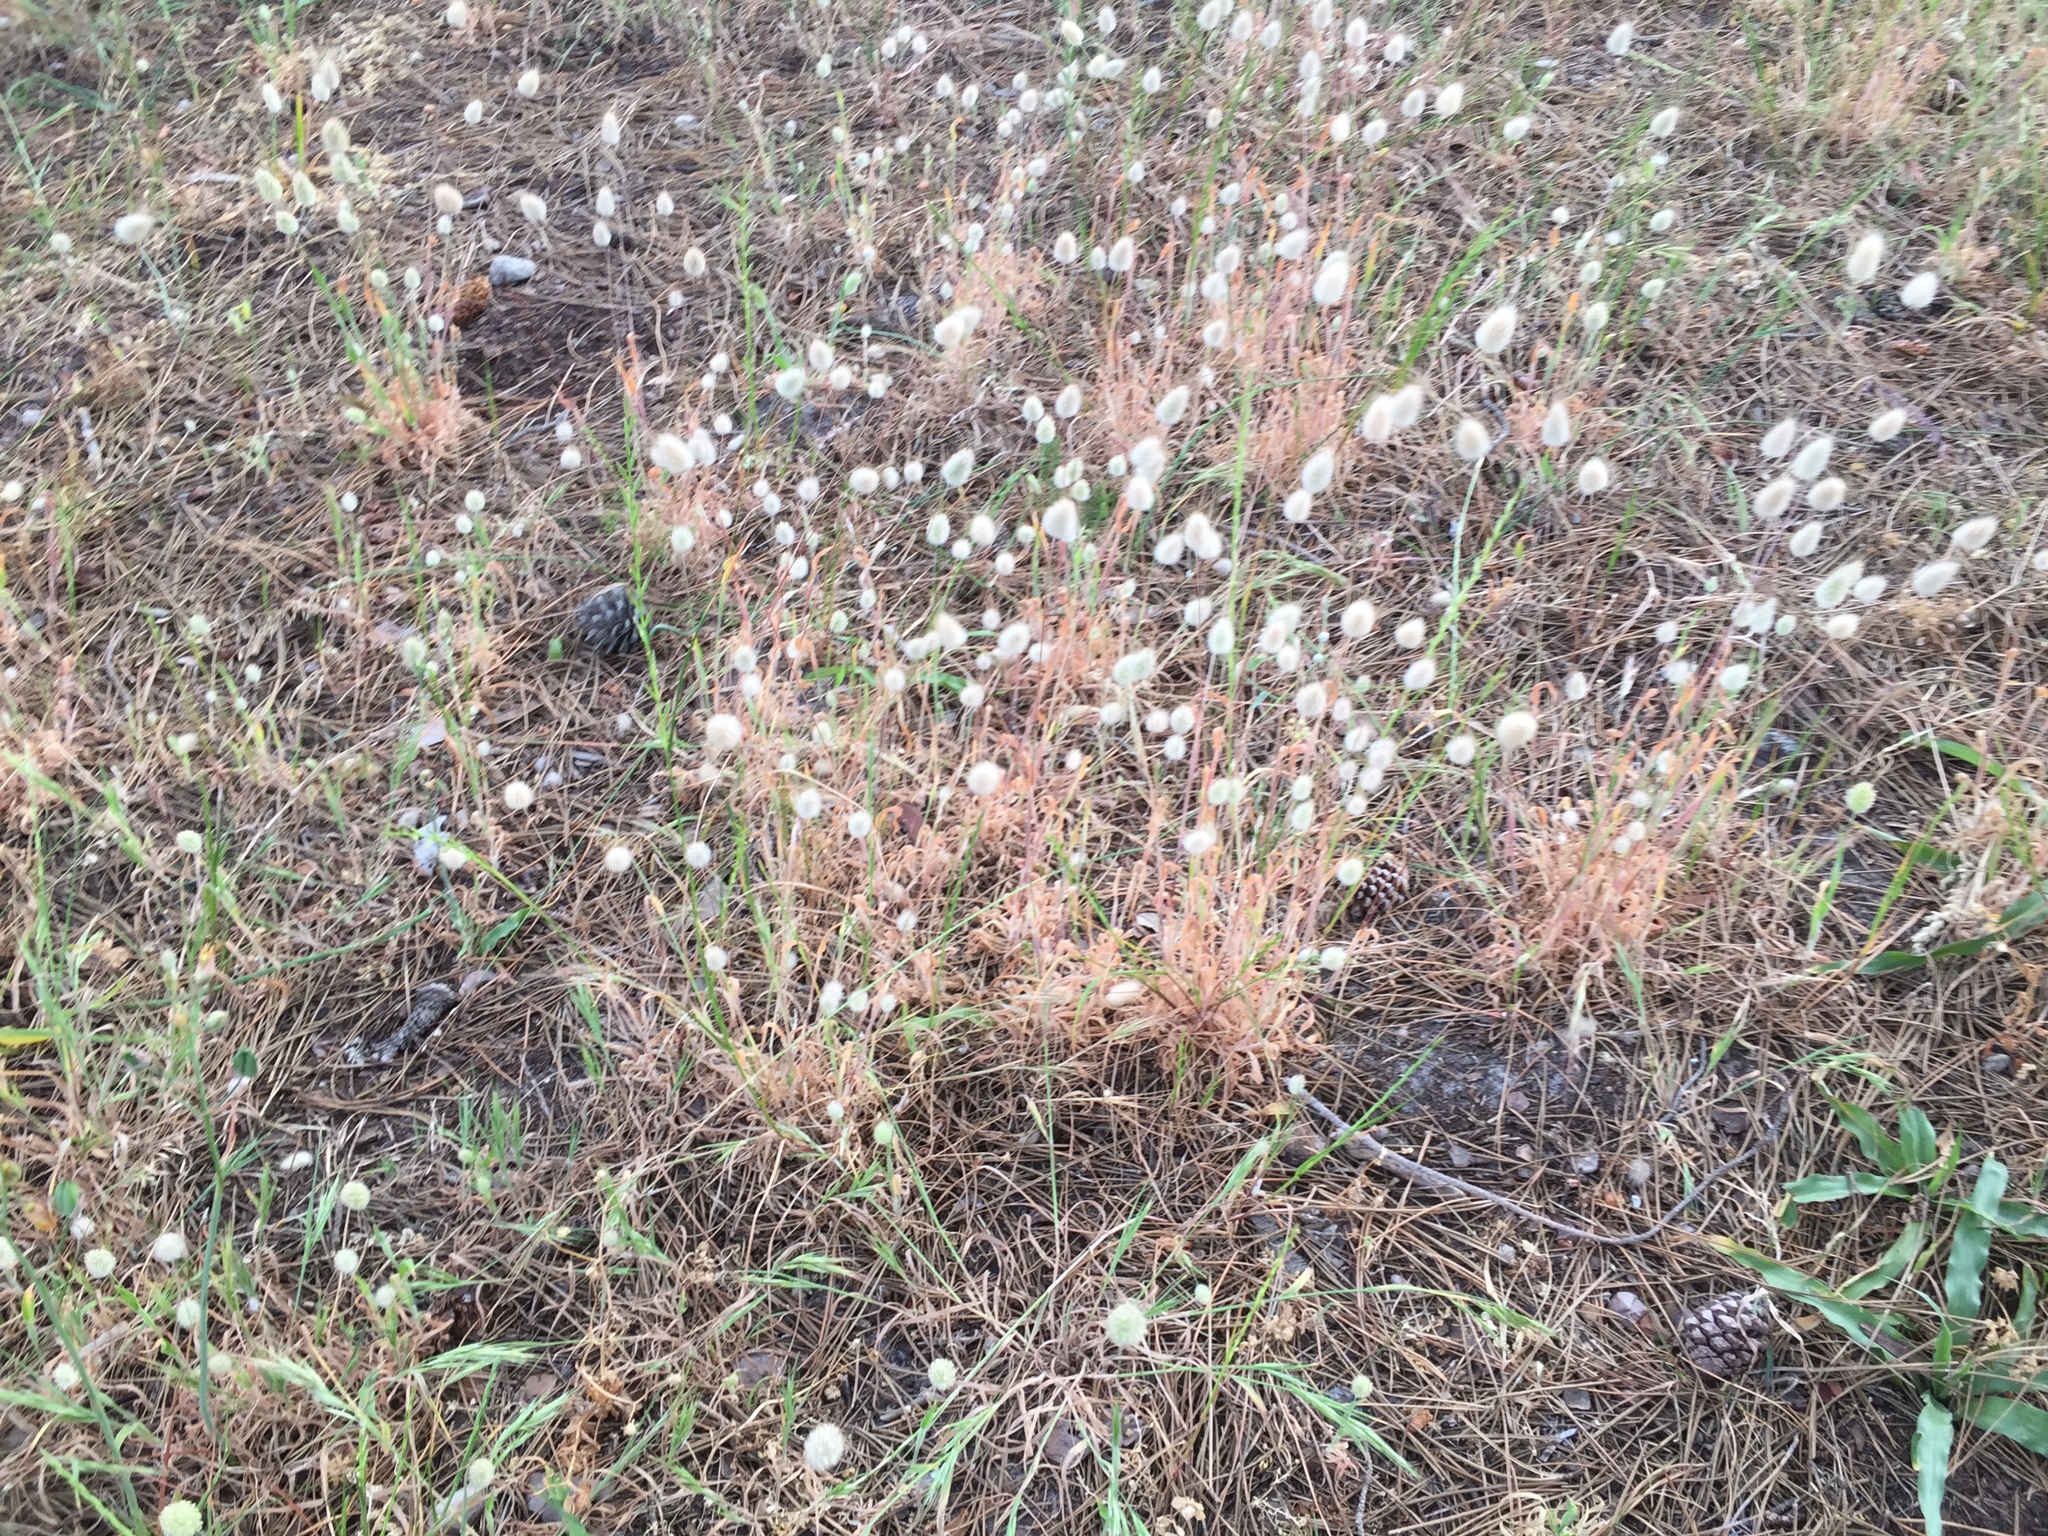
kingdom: Plantae
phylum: Tracheophyta
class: Liliopsida
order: Poales
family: Poaceae
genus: Lagurus
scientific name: Lagurus ovatus
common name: Hare's-tail
